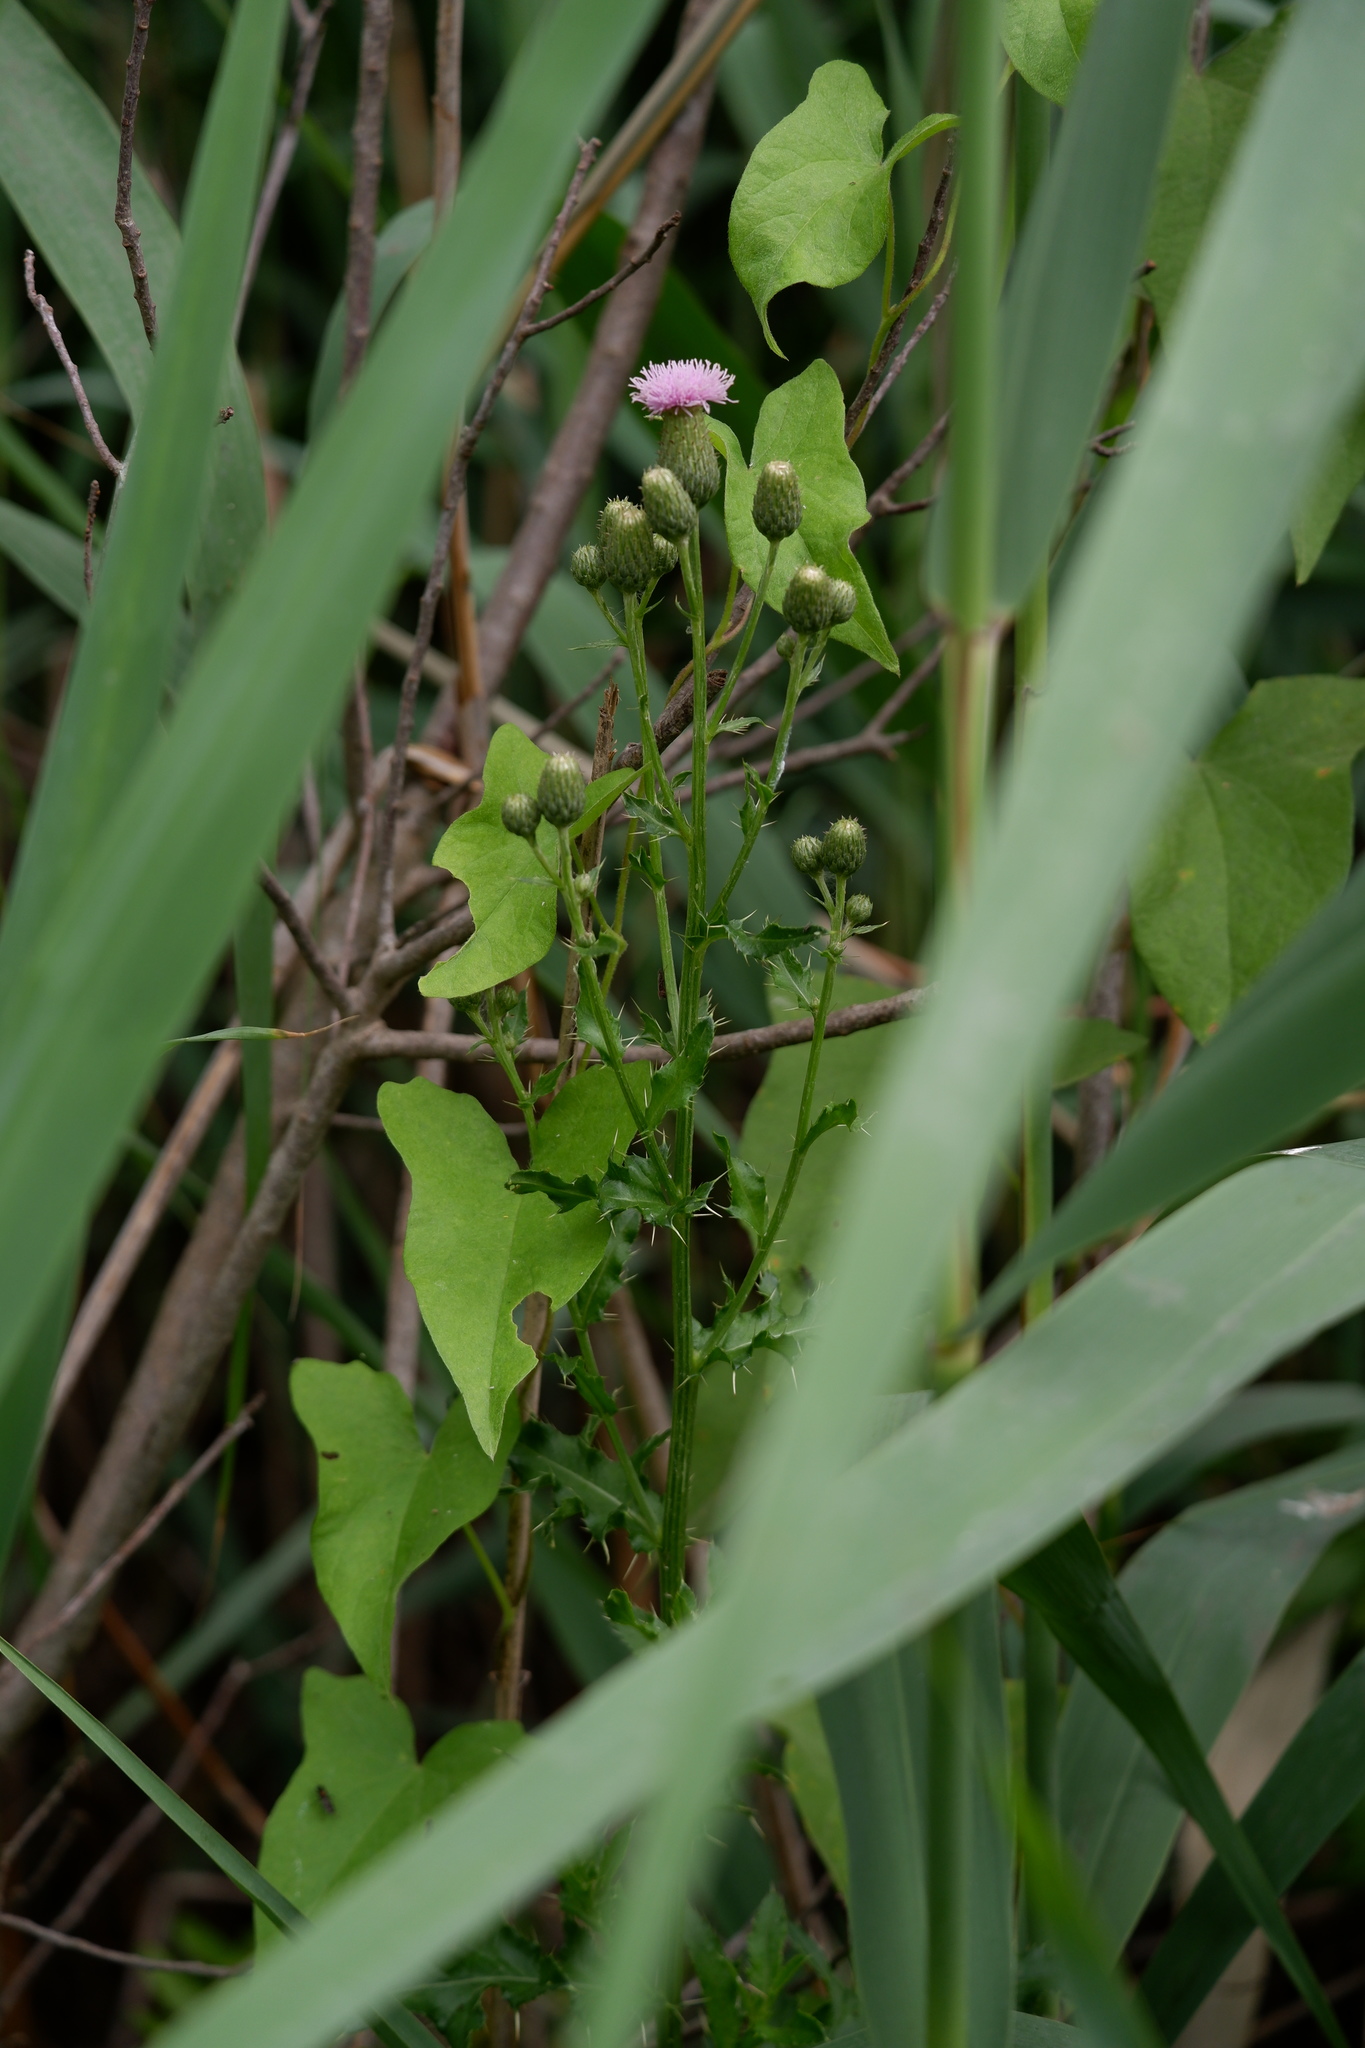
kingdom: Plantae
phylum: Tracheophyta
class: Magnoliopsida
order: Asterales
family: Asteraceae
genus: Cirsium
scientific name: Cirsium arvense
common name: Creeping thistle
